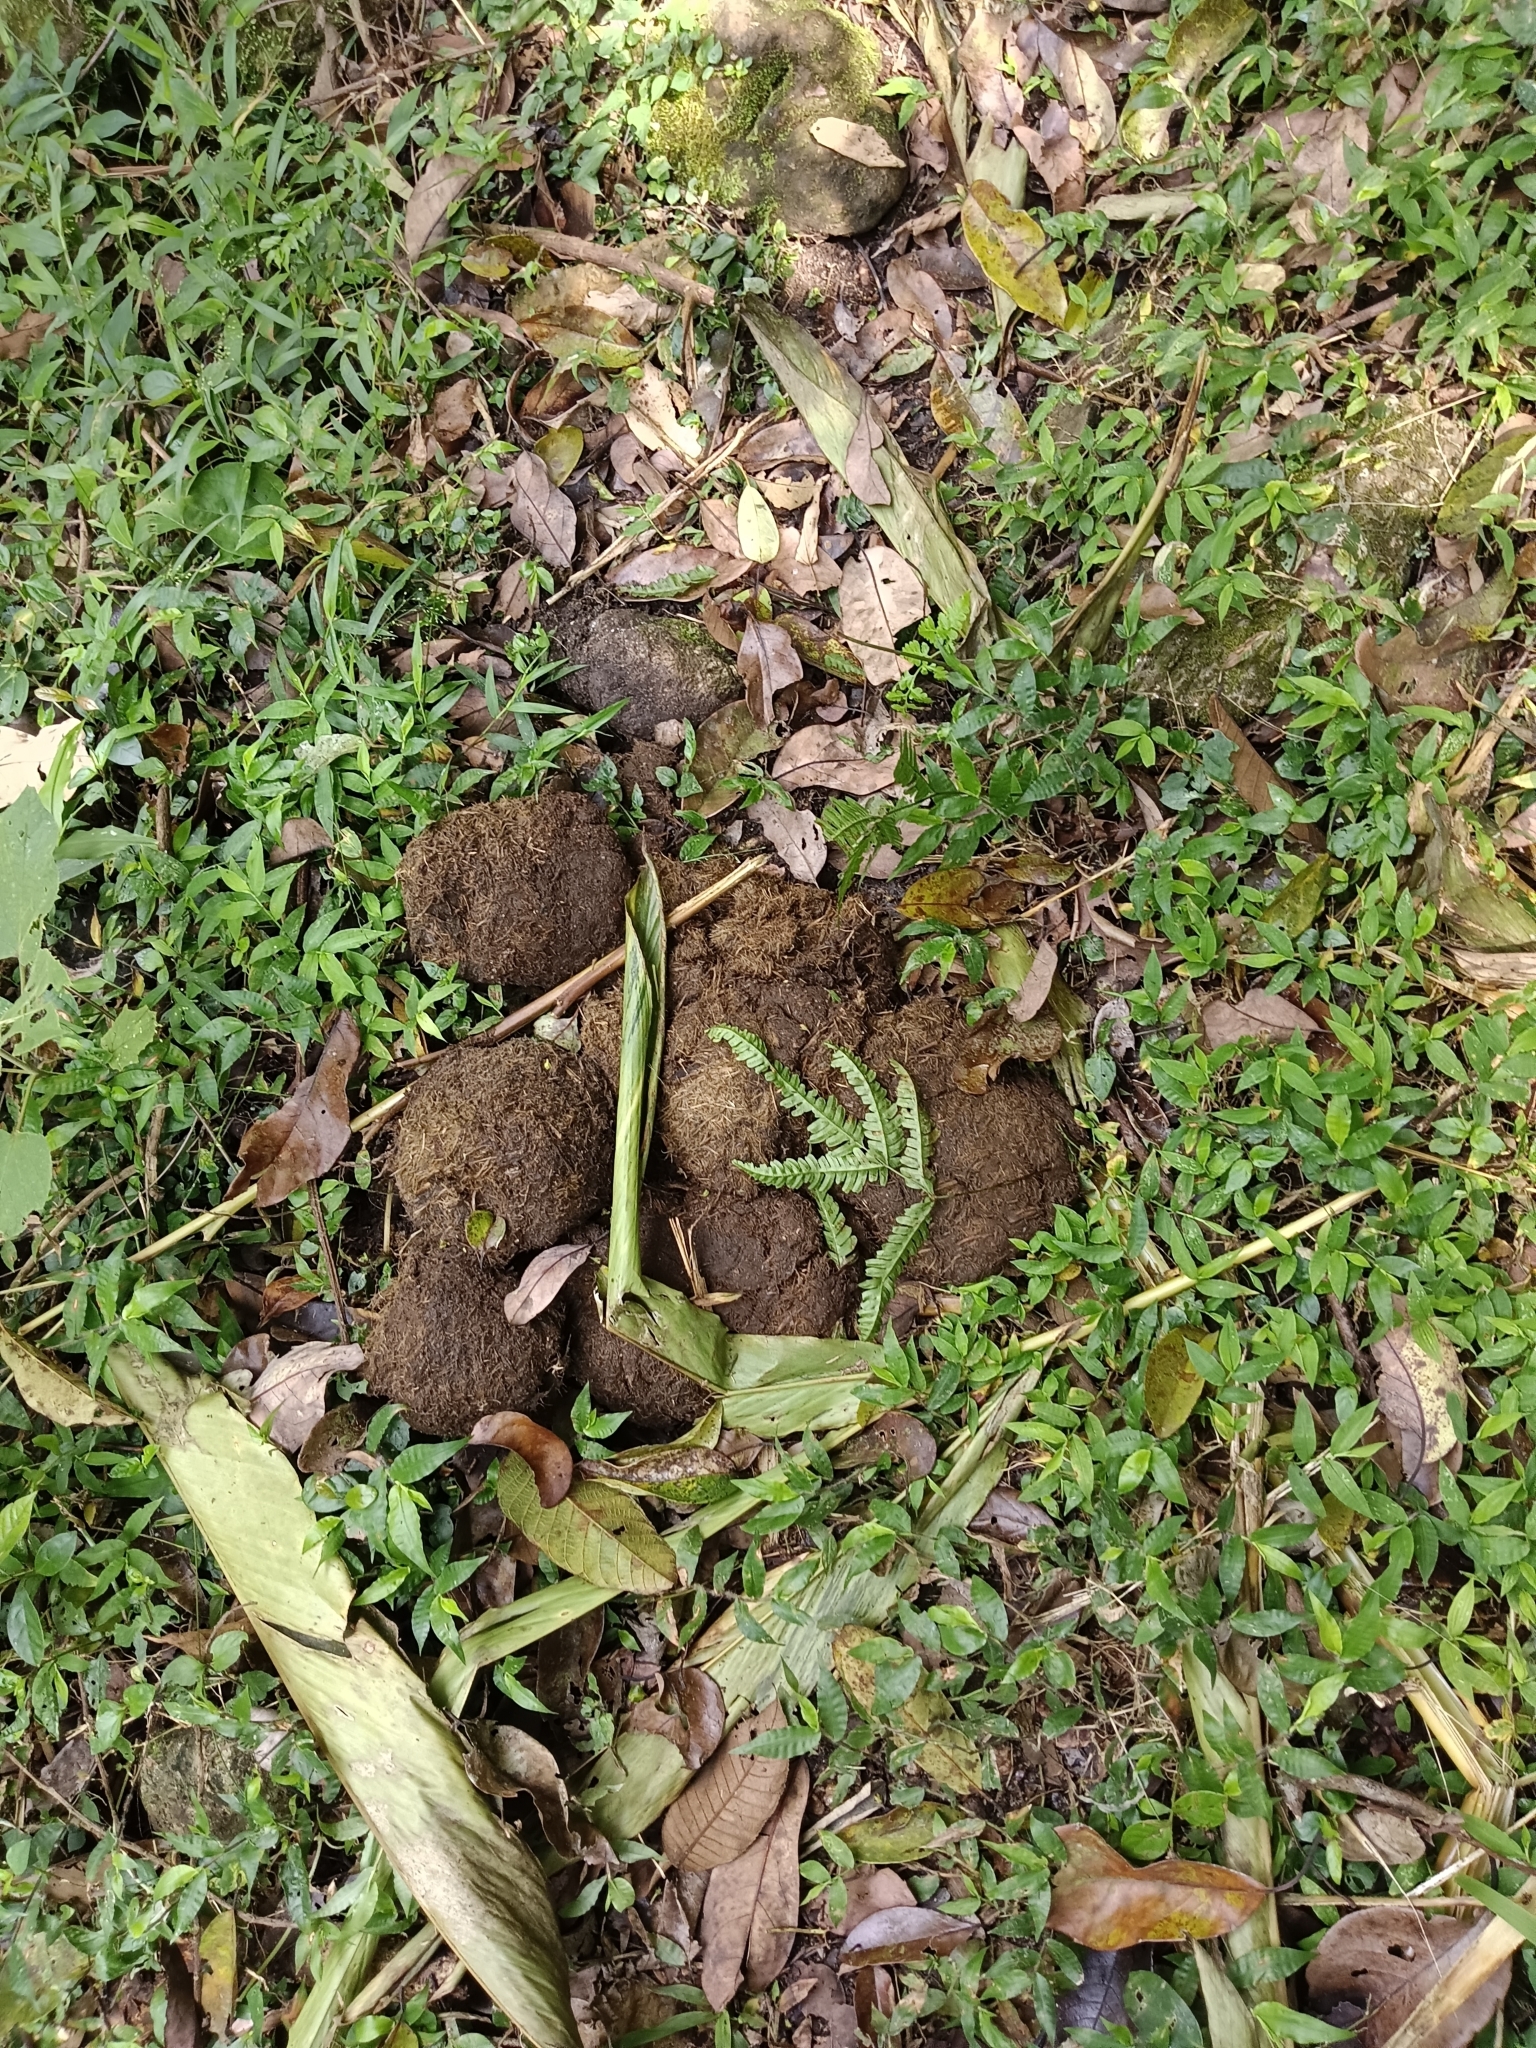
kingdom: Animalia
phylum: Chordata
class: Mammalia
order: Proboscidea
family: Elephantidae
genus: Elephas
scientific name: Elephas maximus
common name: Asian elephant
